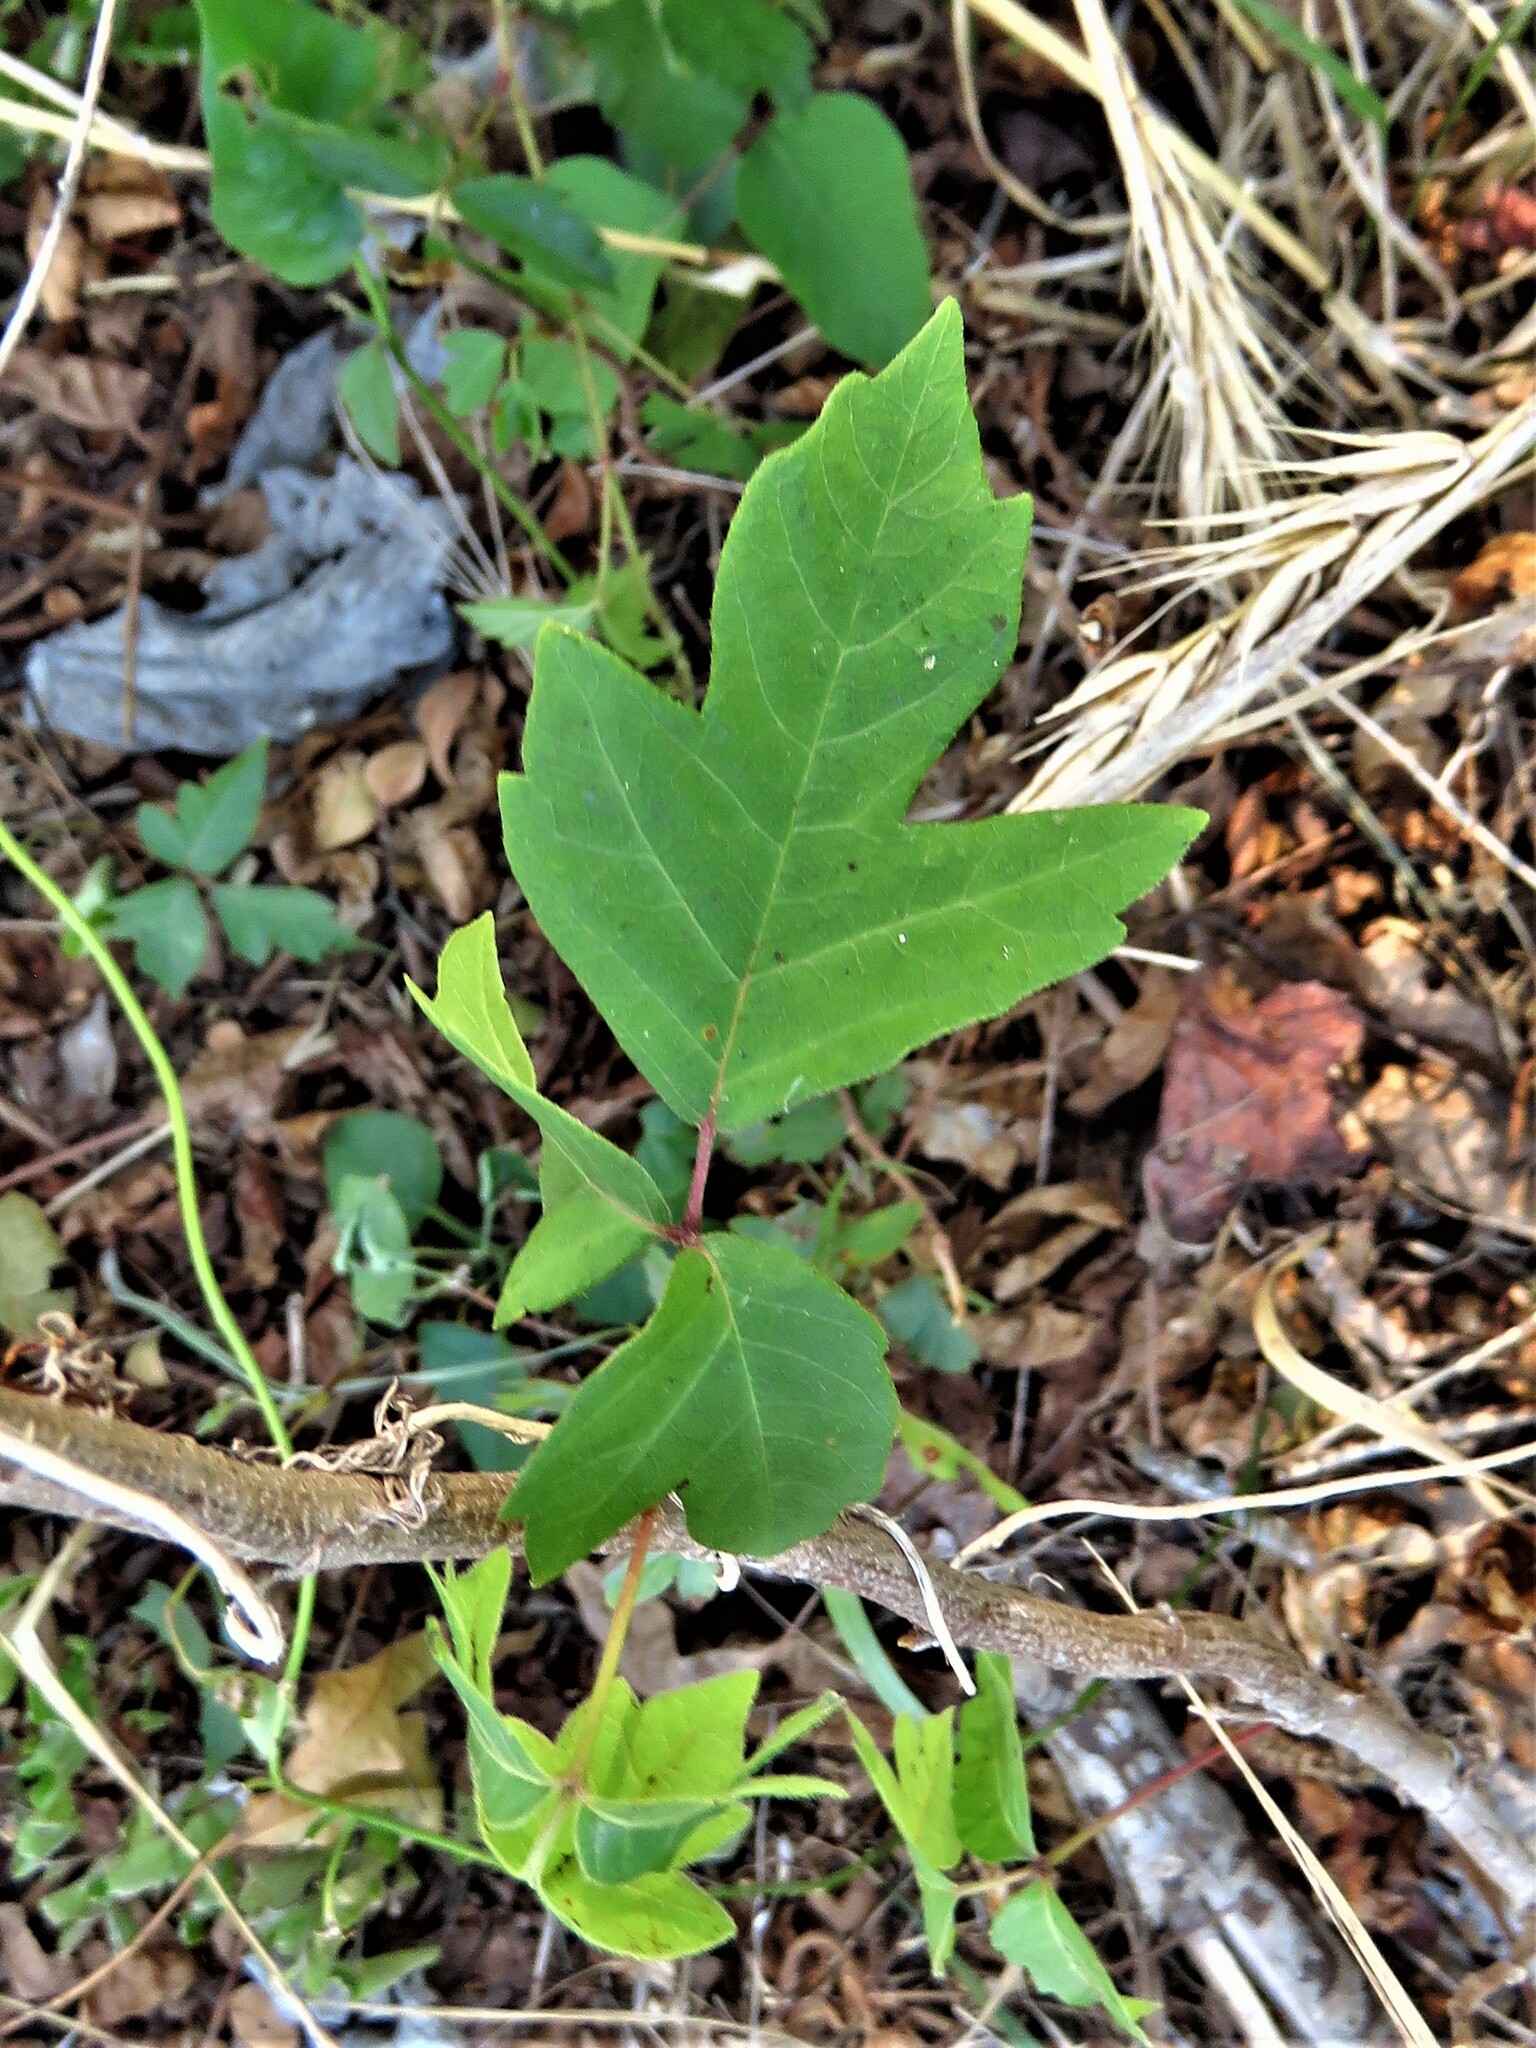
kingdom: Plantae
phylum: Tracheophyta
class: Magnoliopsida
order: Sapindales
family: Anacardiaceae
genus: Toxicodendron
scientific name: Toxicodendron radicans
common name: Poison ivy
